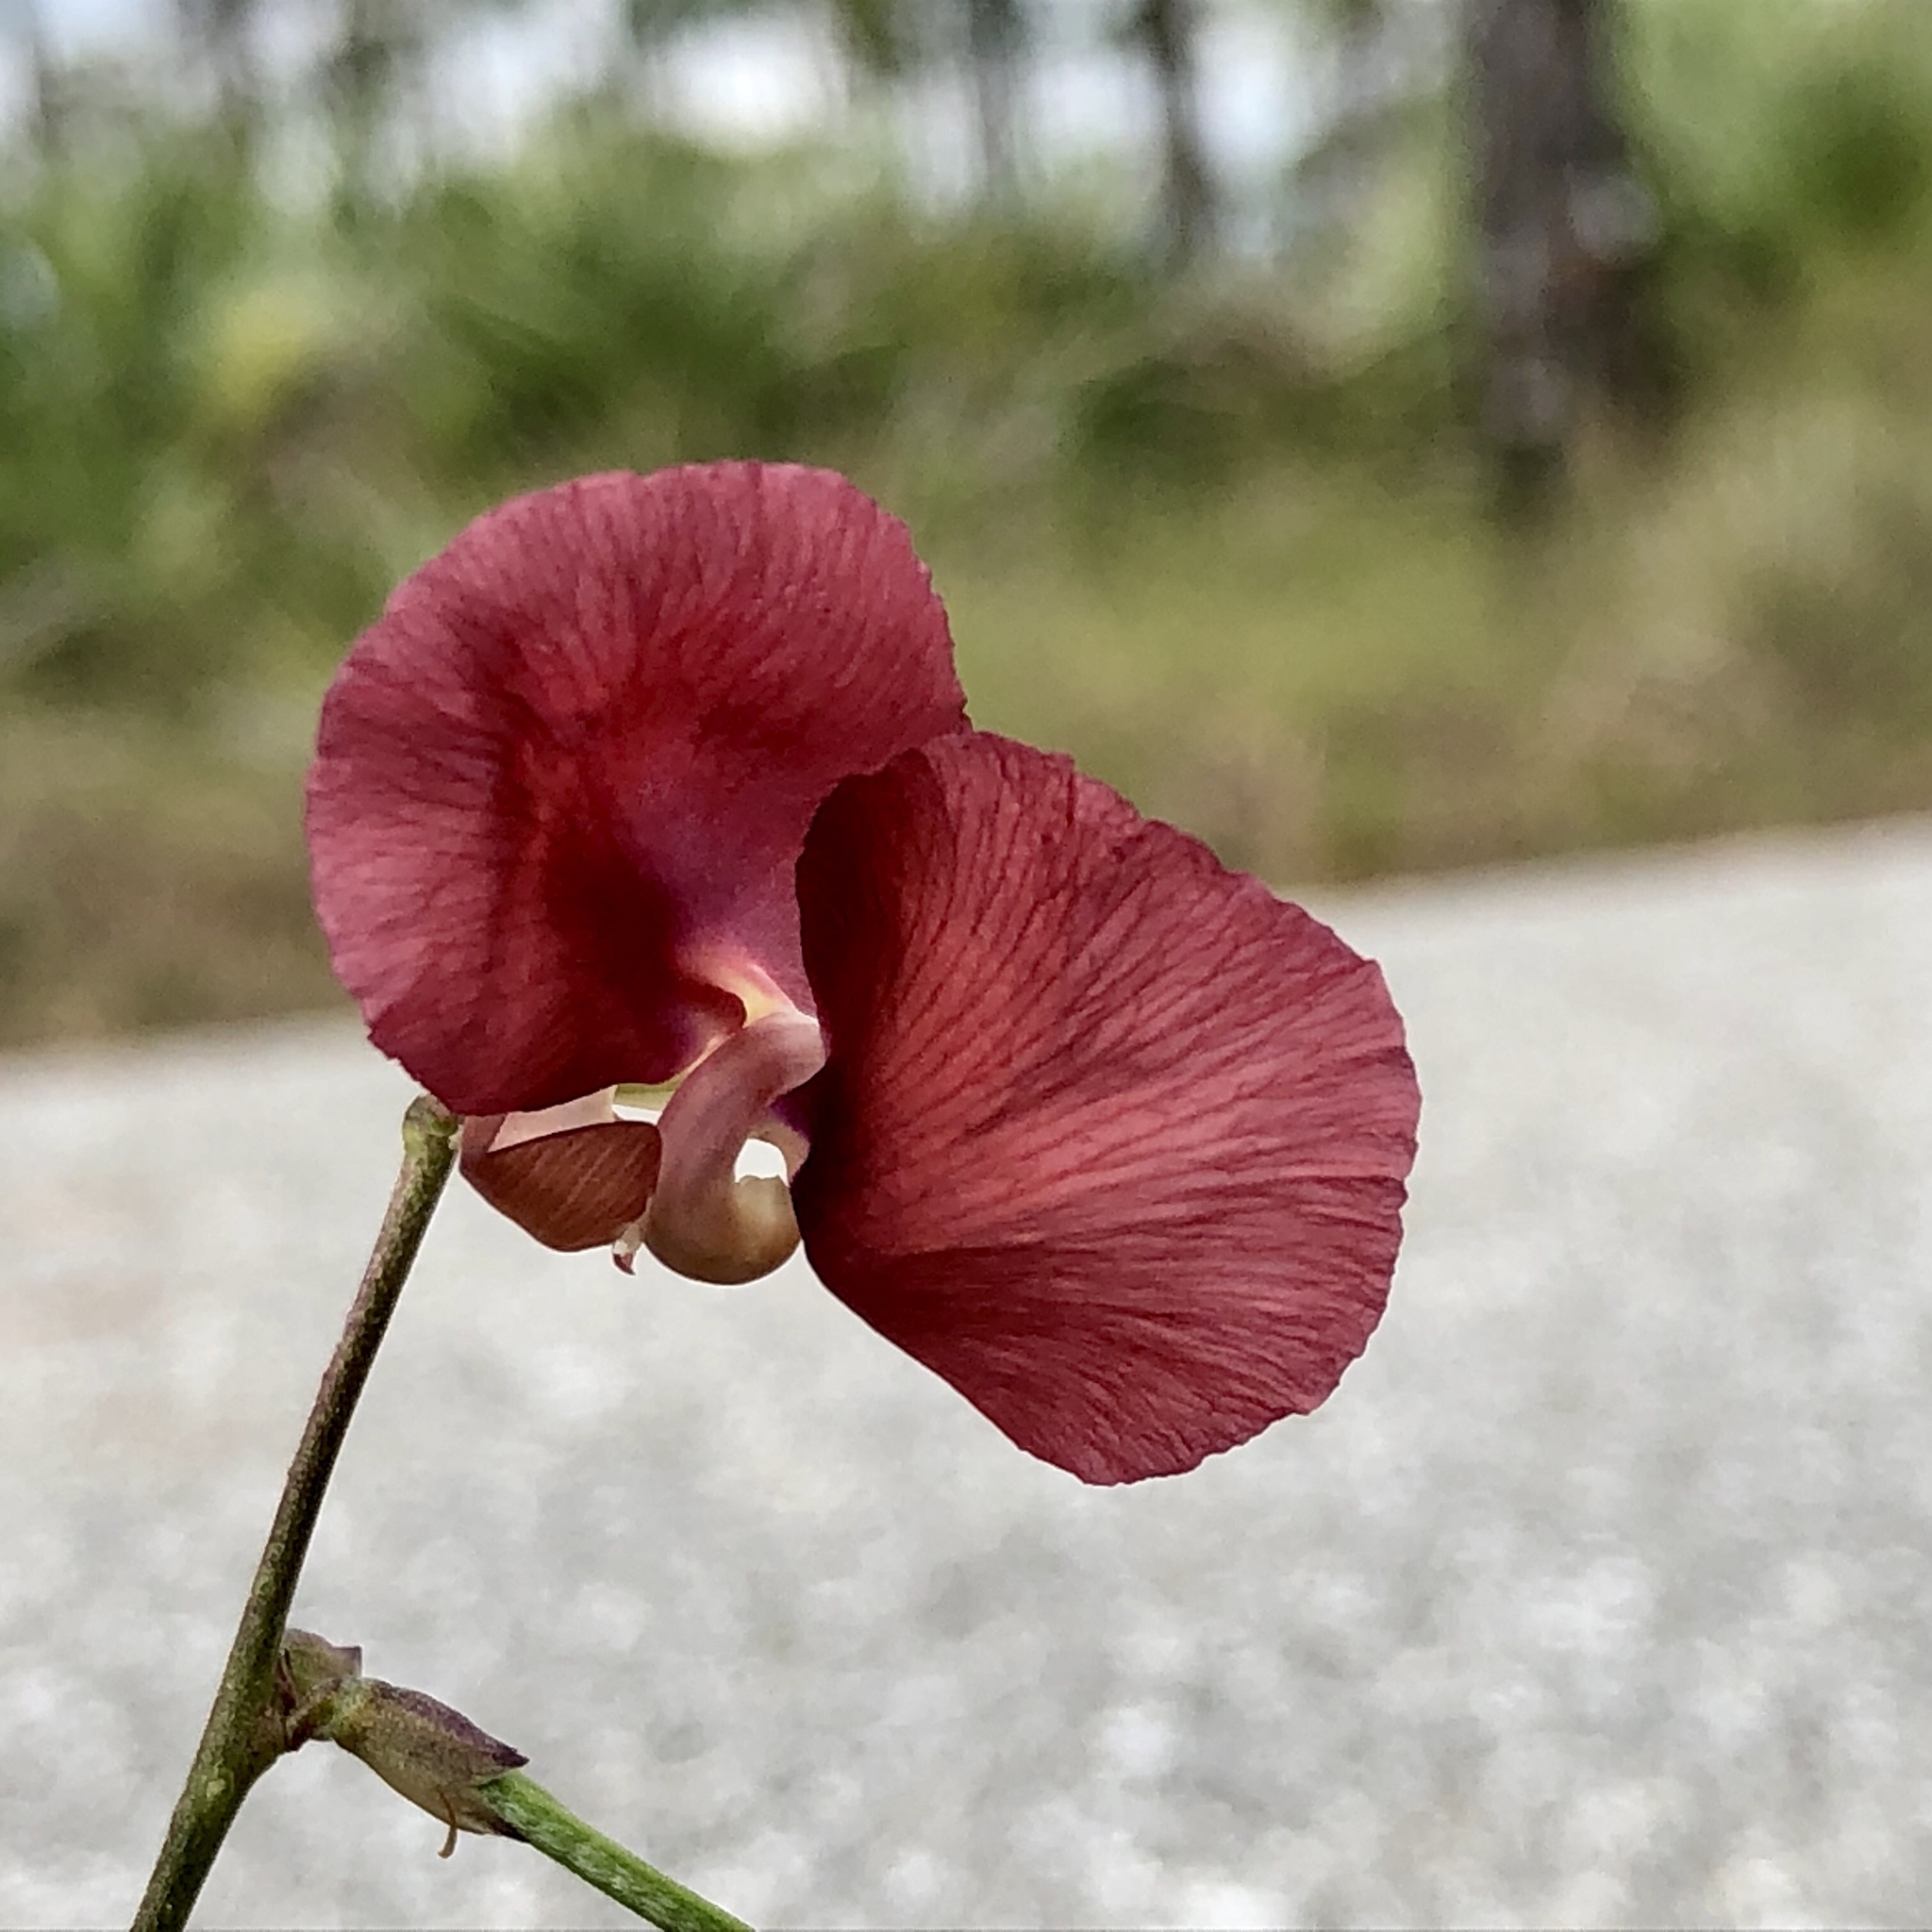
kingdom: Plantae
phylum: Tracheophyta
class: Magnoliopsida
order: Fabales
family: Fabaceae
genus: Macroptilium
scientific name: Macroptilium lathyroides
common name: Wild bushbean
